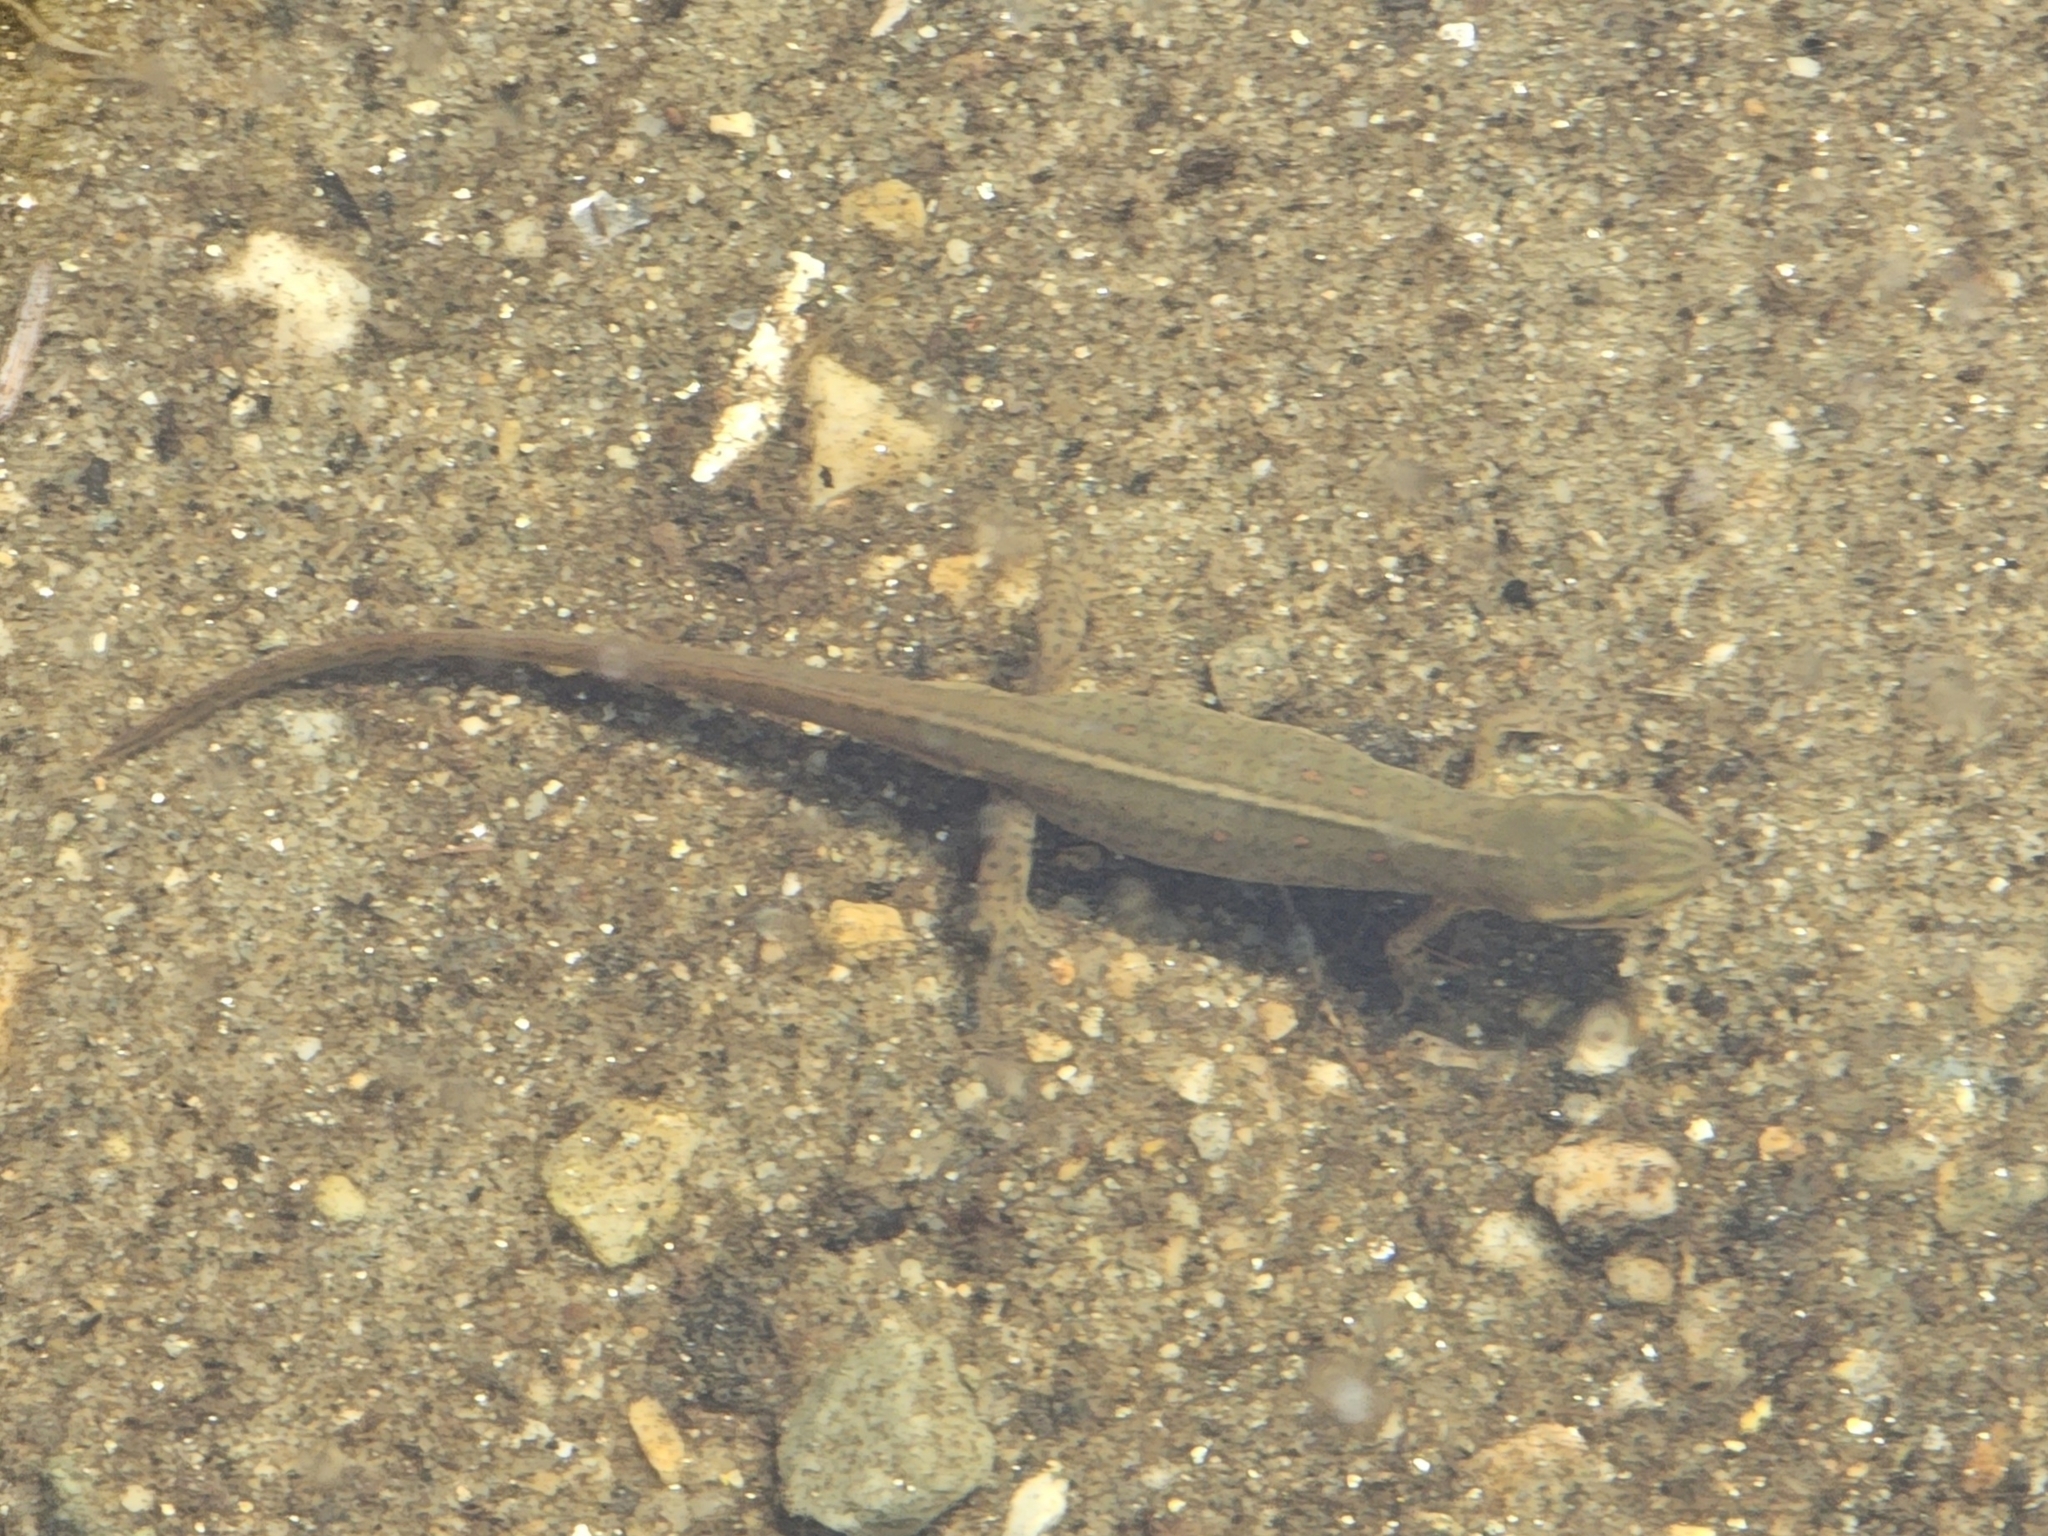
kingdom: Animalia
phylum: Chordata
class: Amphibia
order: Caudata
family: Salamandridae
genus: Notophthalmus
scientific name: Notophthalmus viridescens
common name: Eastern newt
